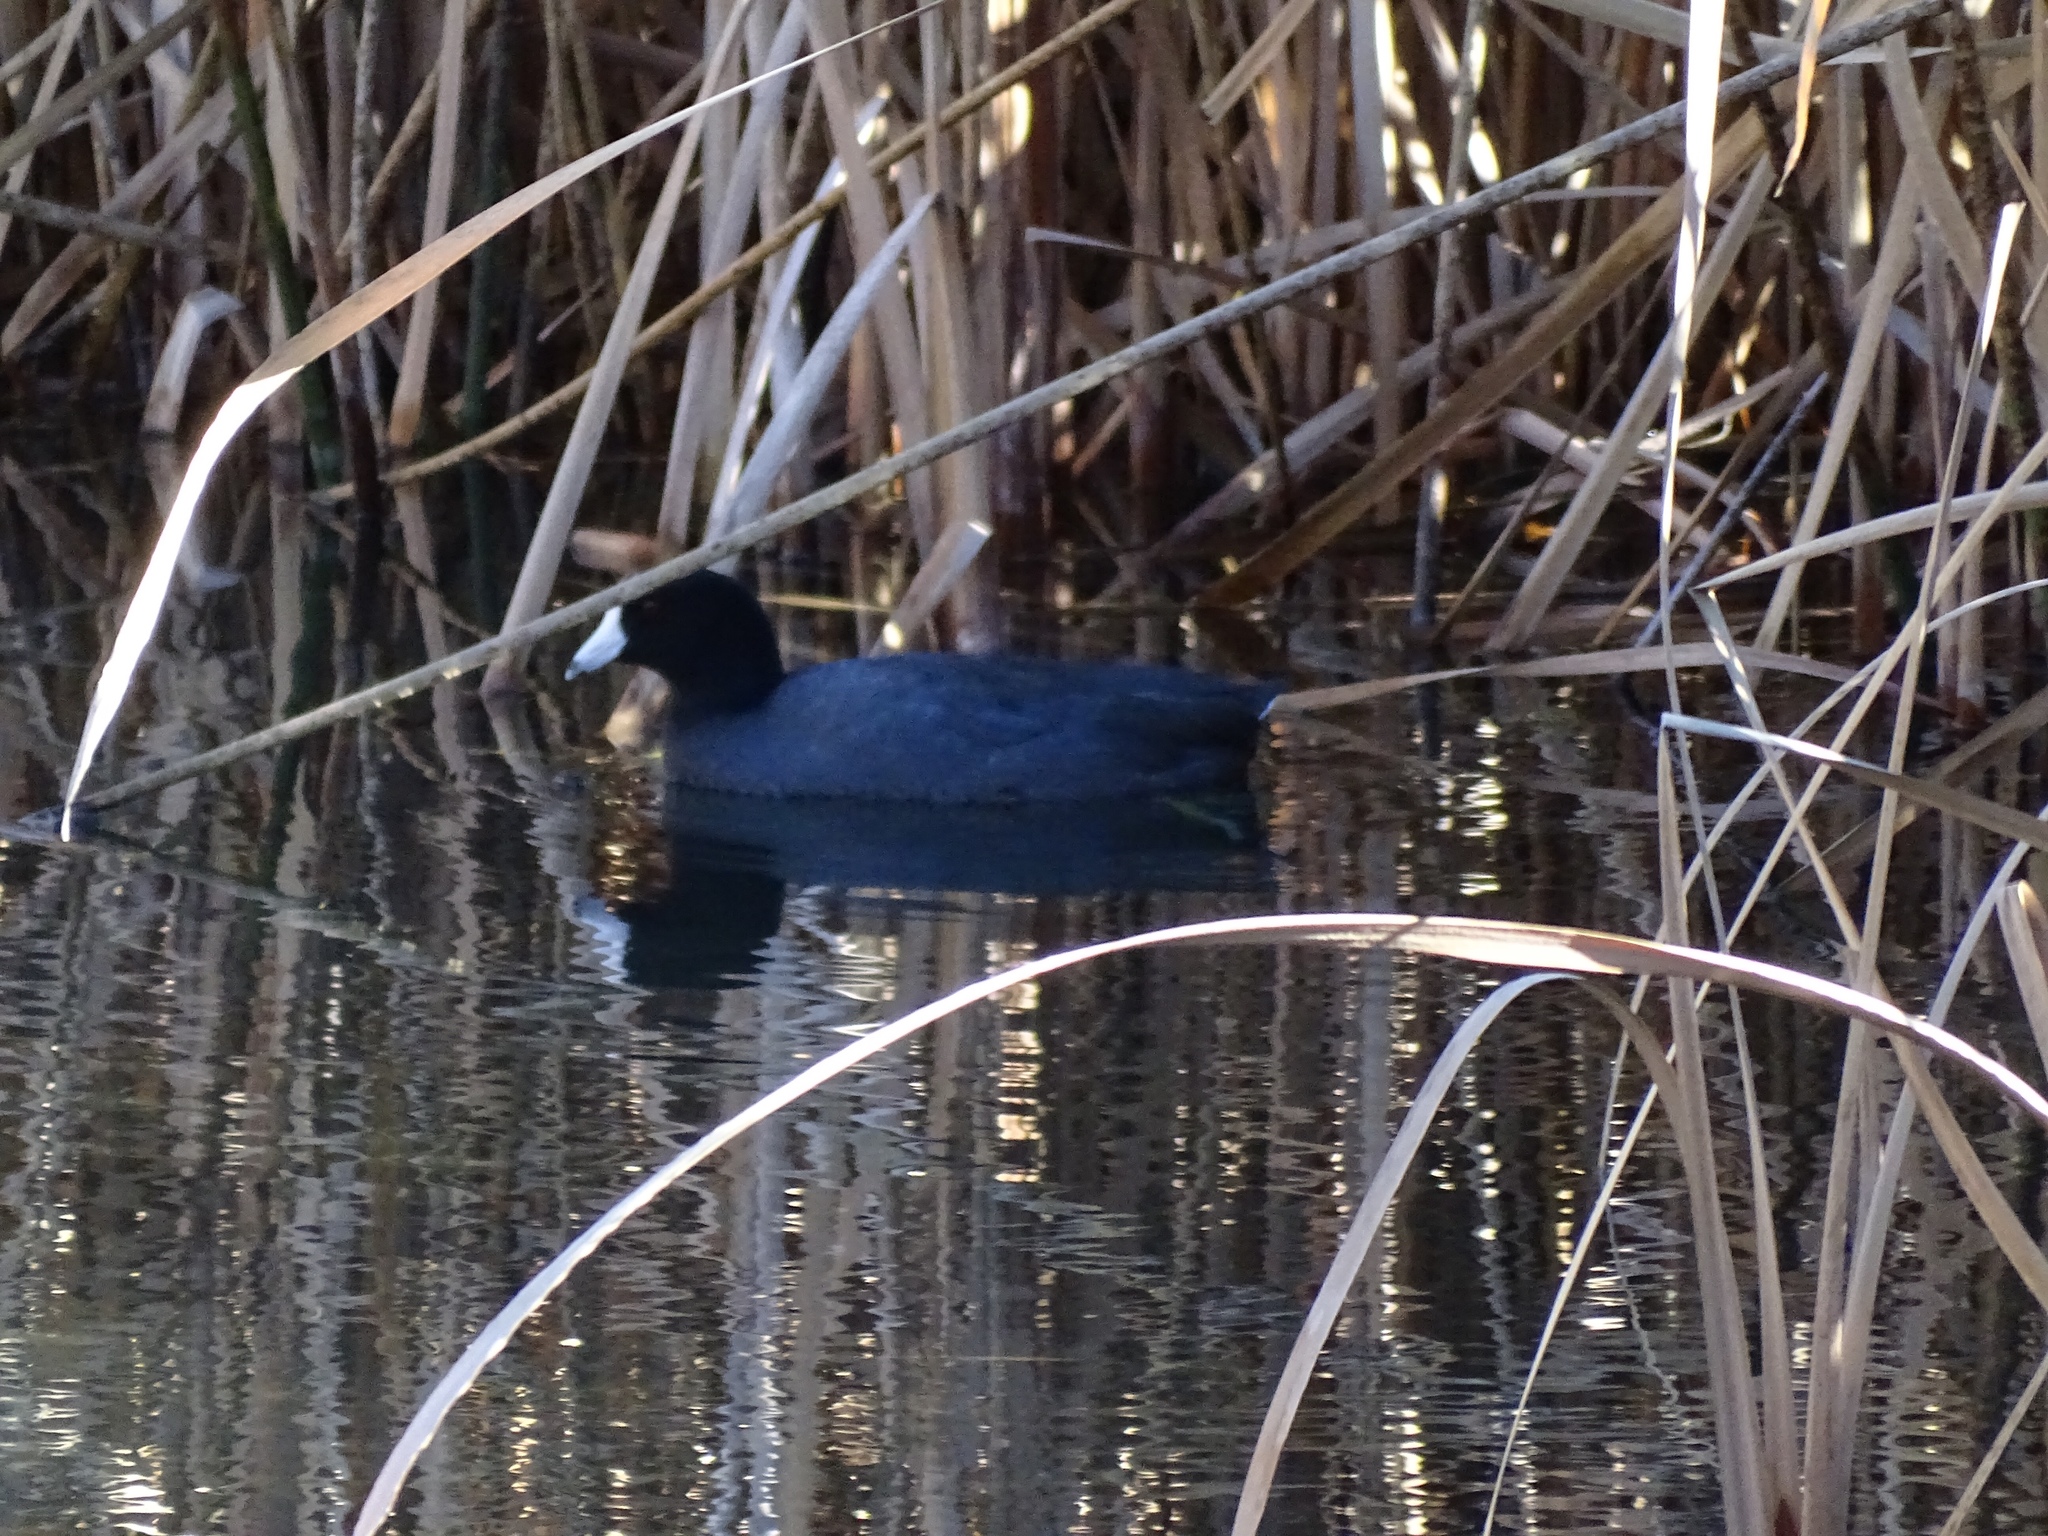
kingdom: Animalia
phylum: Chordata
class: Aves
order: Gruiformes
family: Rallidae
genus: Fulica
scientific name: Fulica americana
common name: American coot
